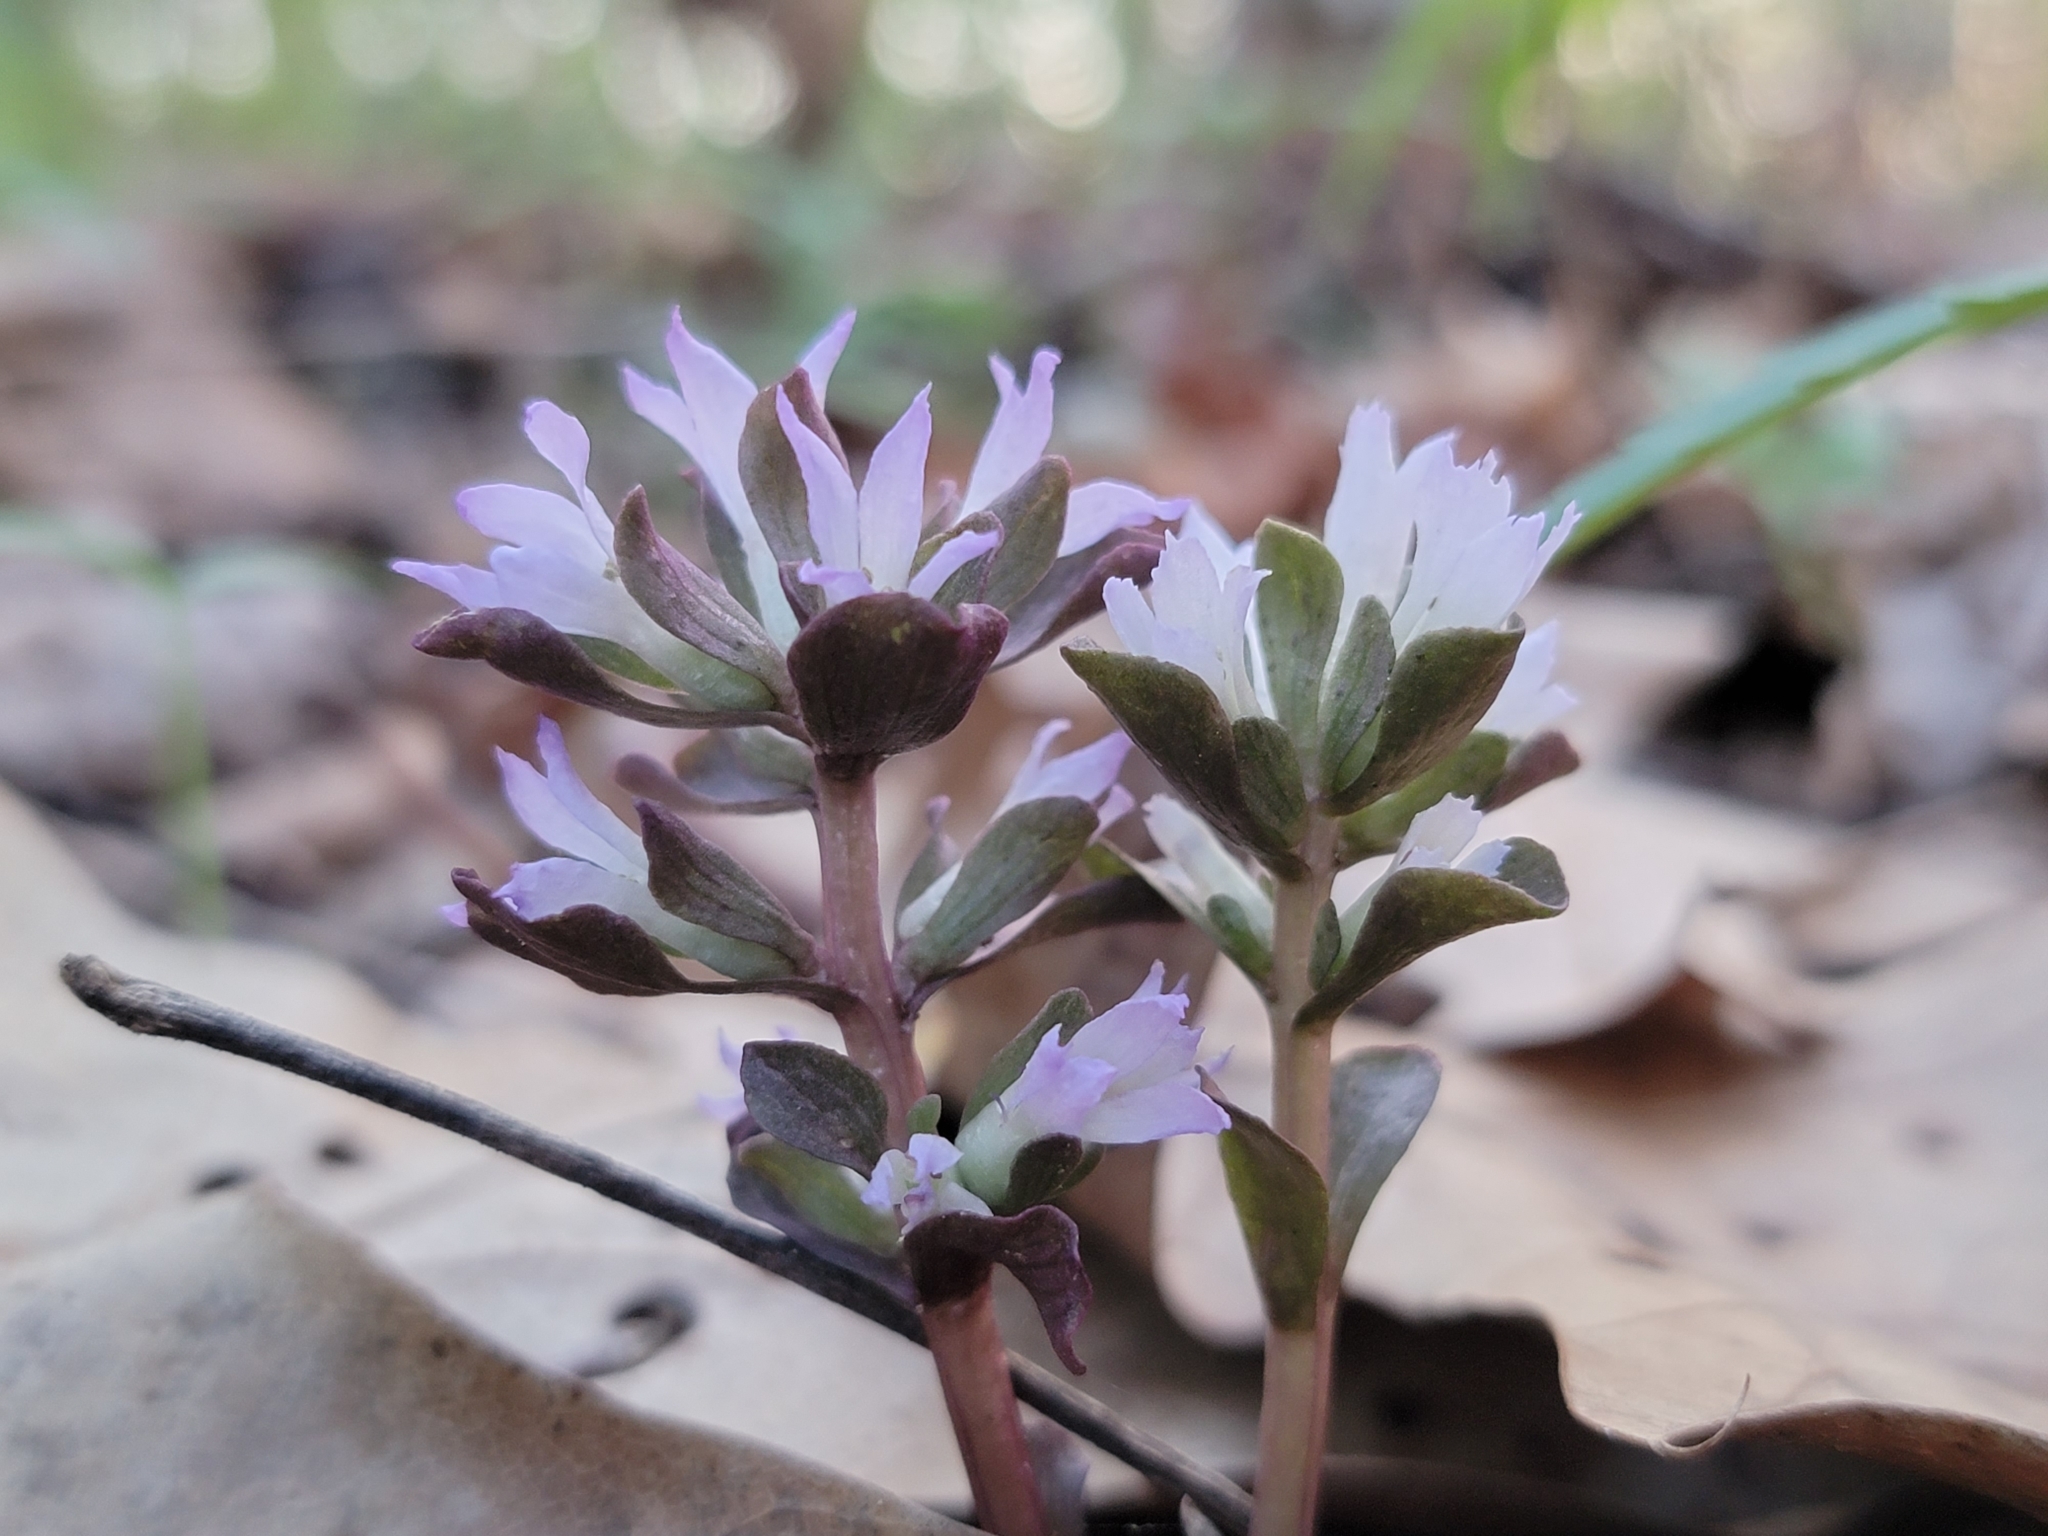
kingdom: Plantae
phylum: Tracheophyta
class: Magnoliopsida
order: Gentianales
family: Gentianaceae
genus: Obolaria
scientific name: Obolaria virginica
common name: Pennywort
